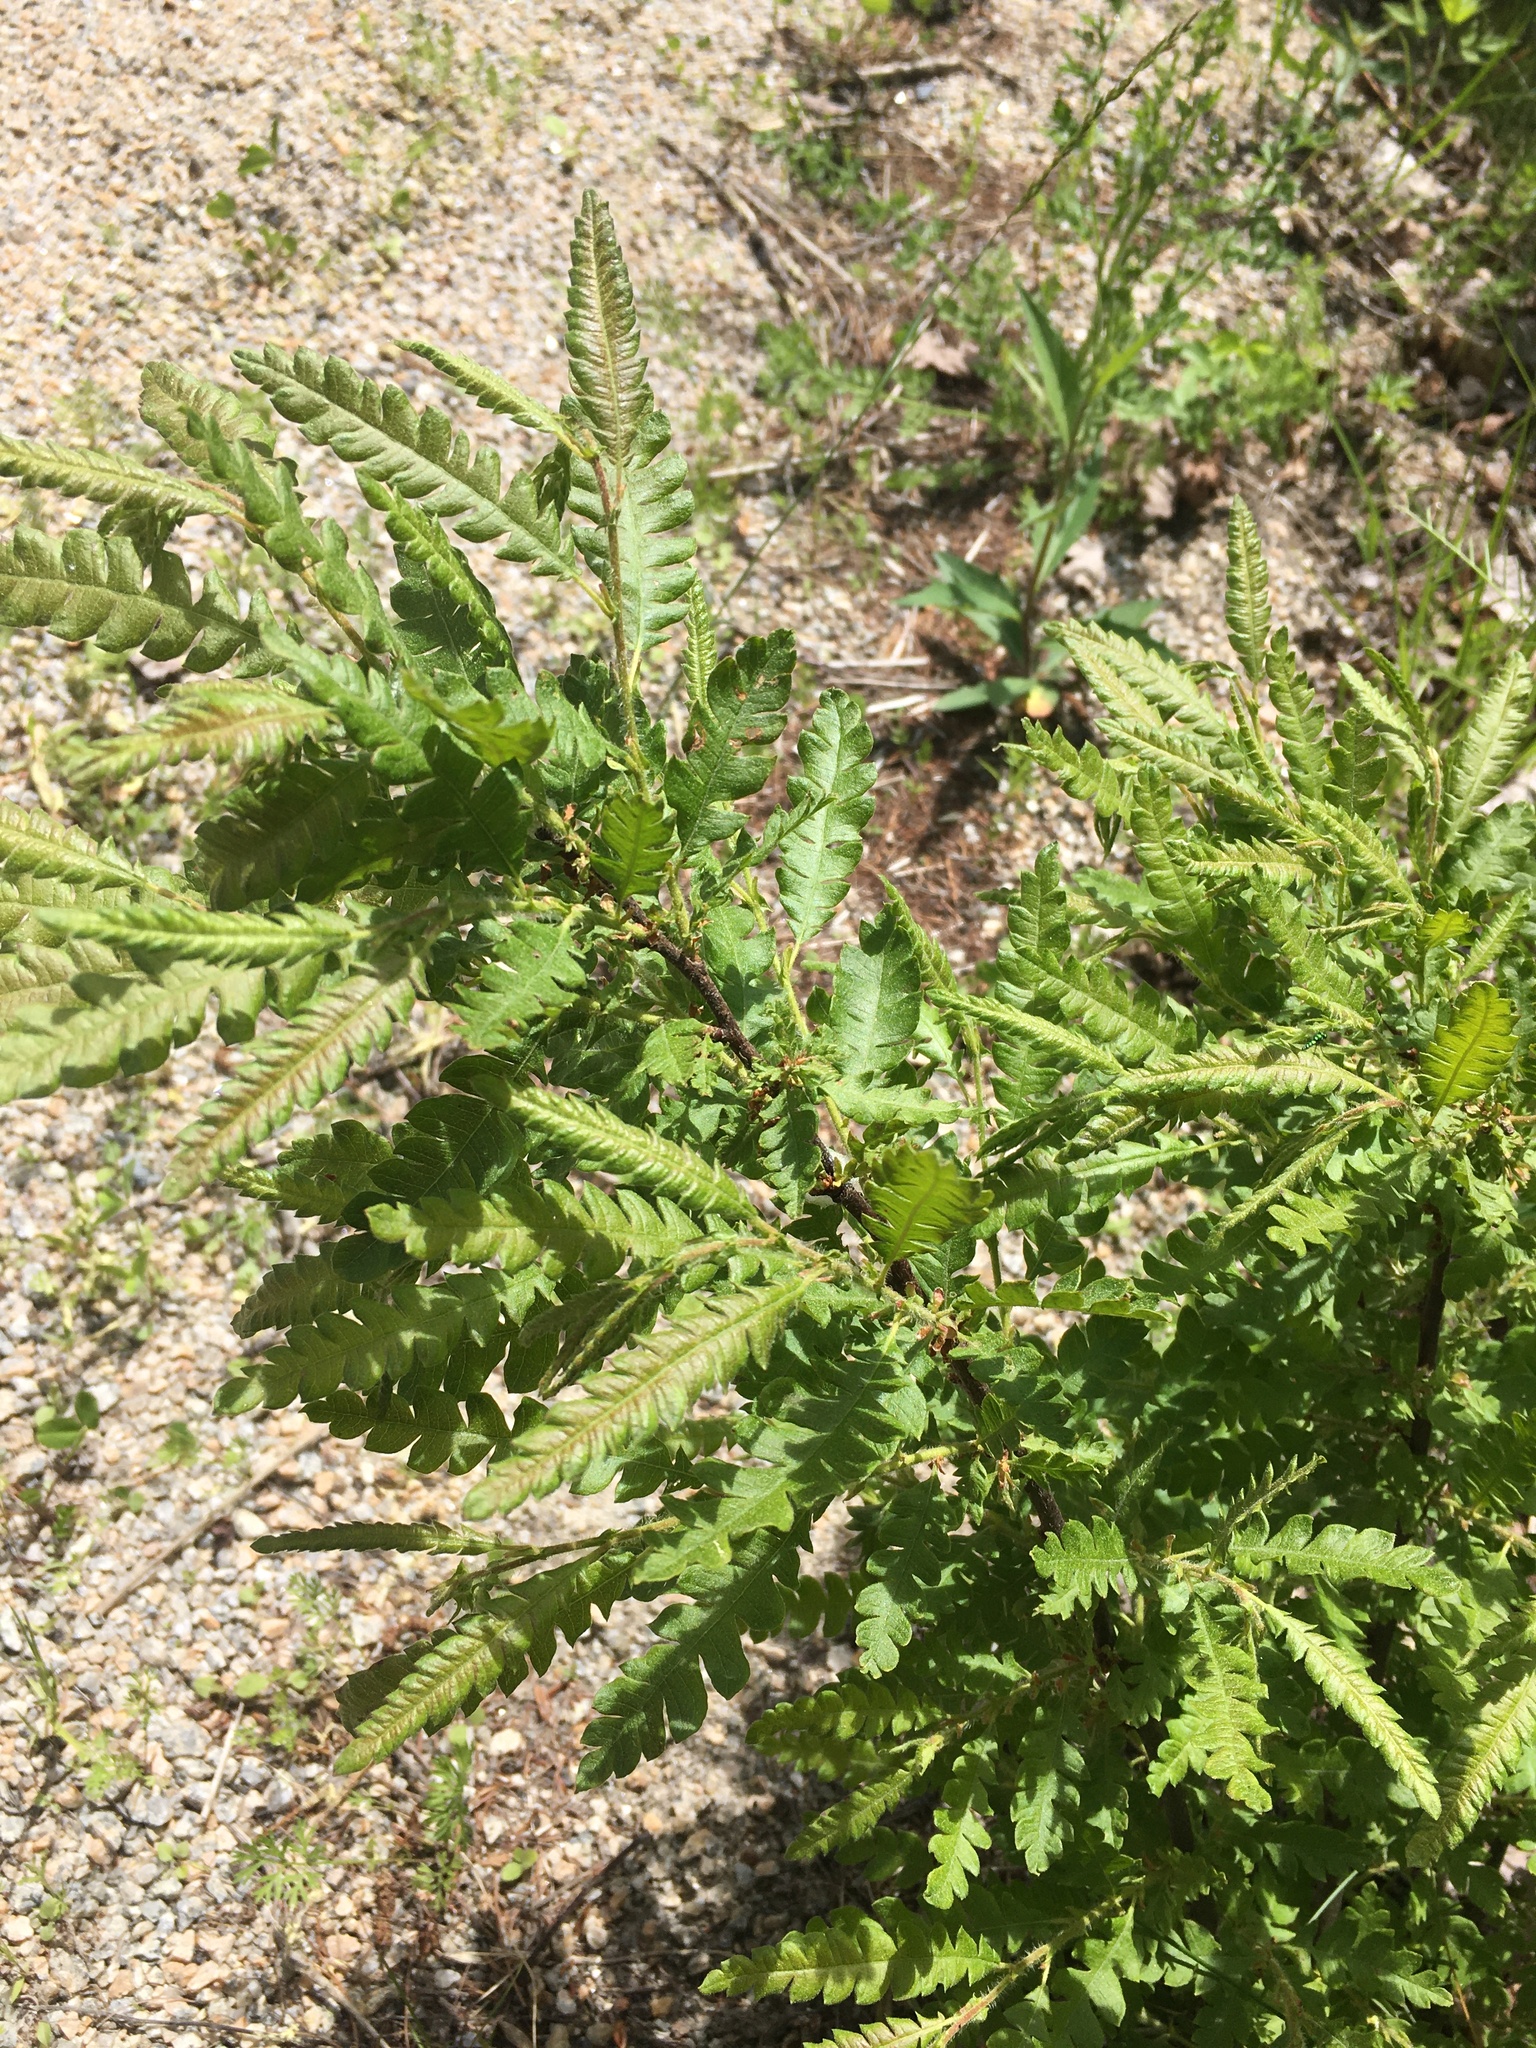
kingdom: Plantae
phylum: Tracheophyta
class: Magnoliopsida
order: Fagales
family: Myricaceae
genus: Comptonia
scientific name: Comptonia peregrina
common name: Sweet-fern
